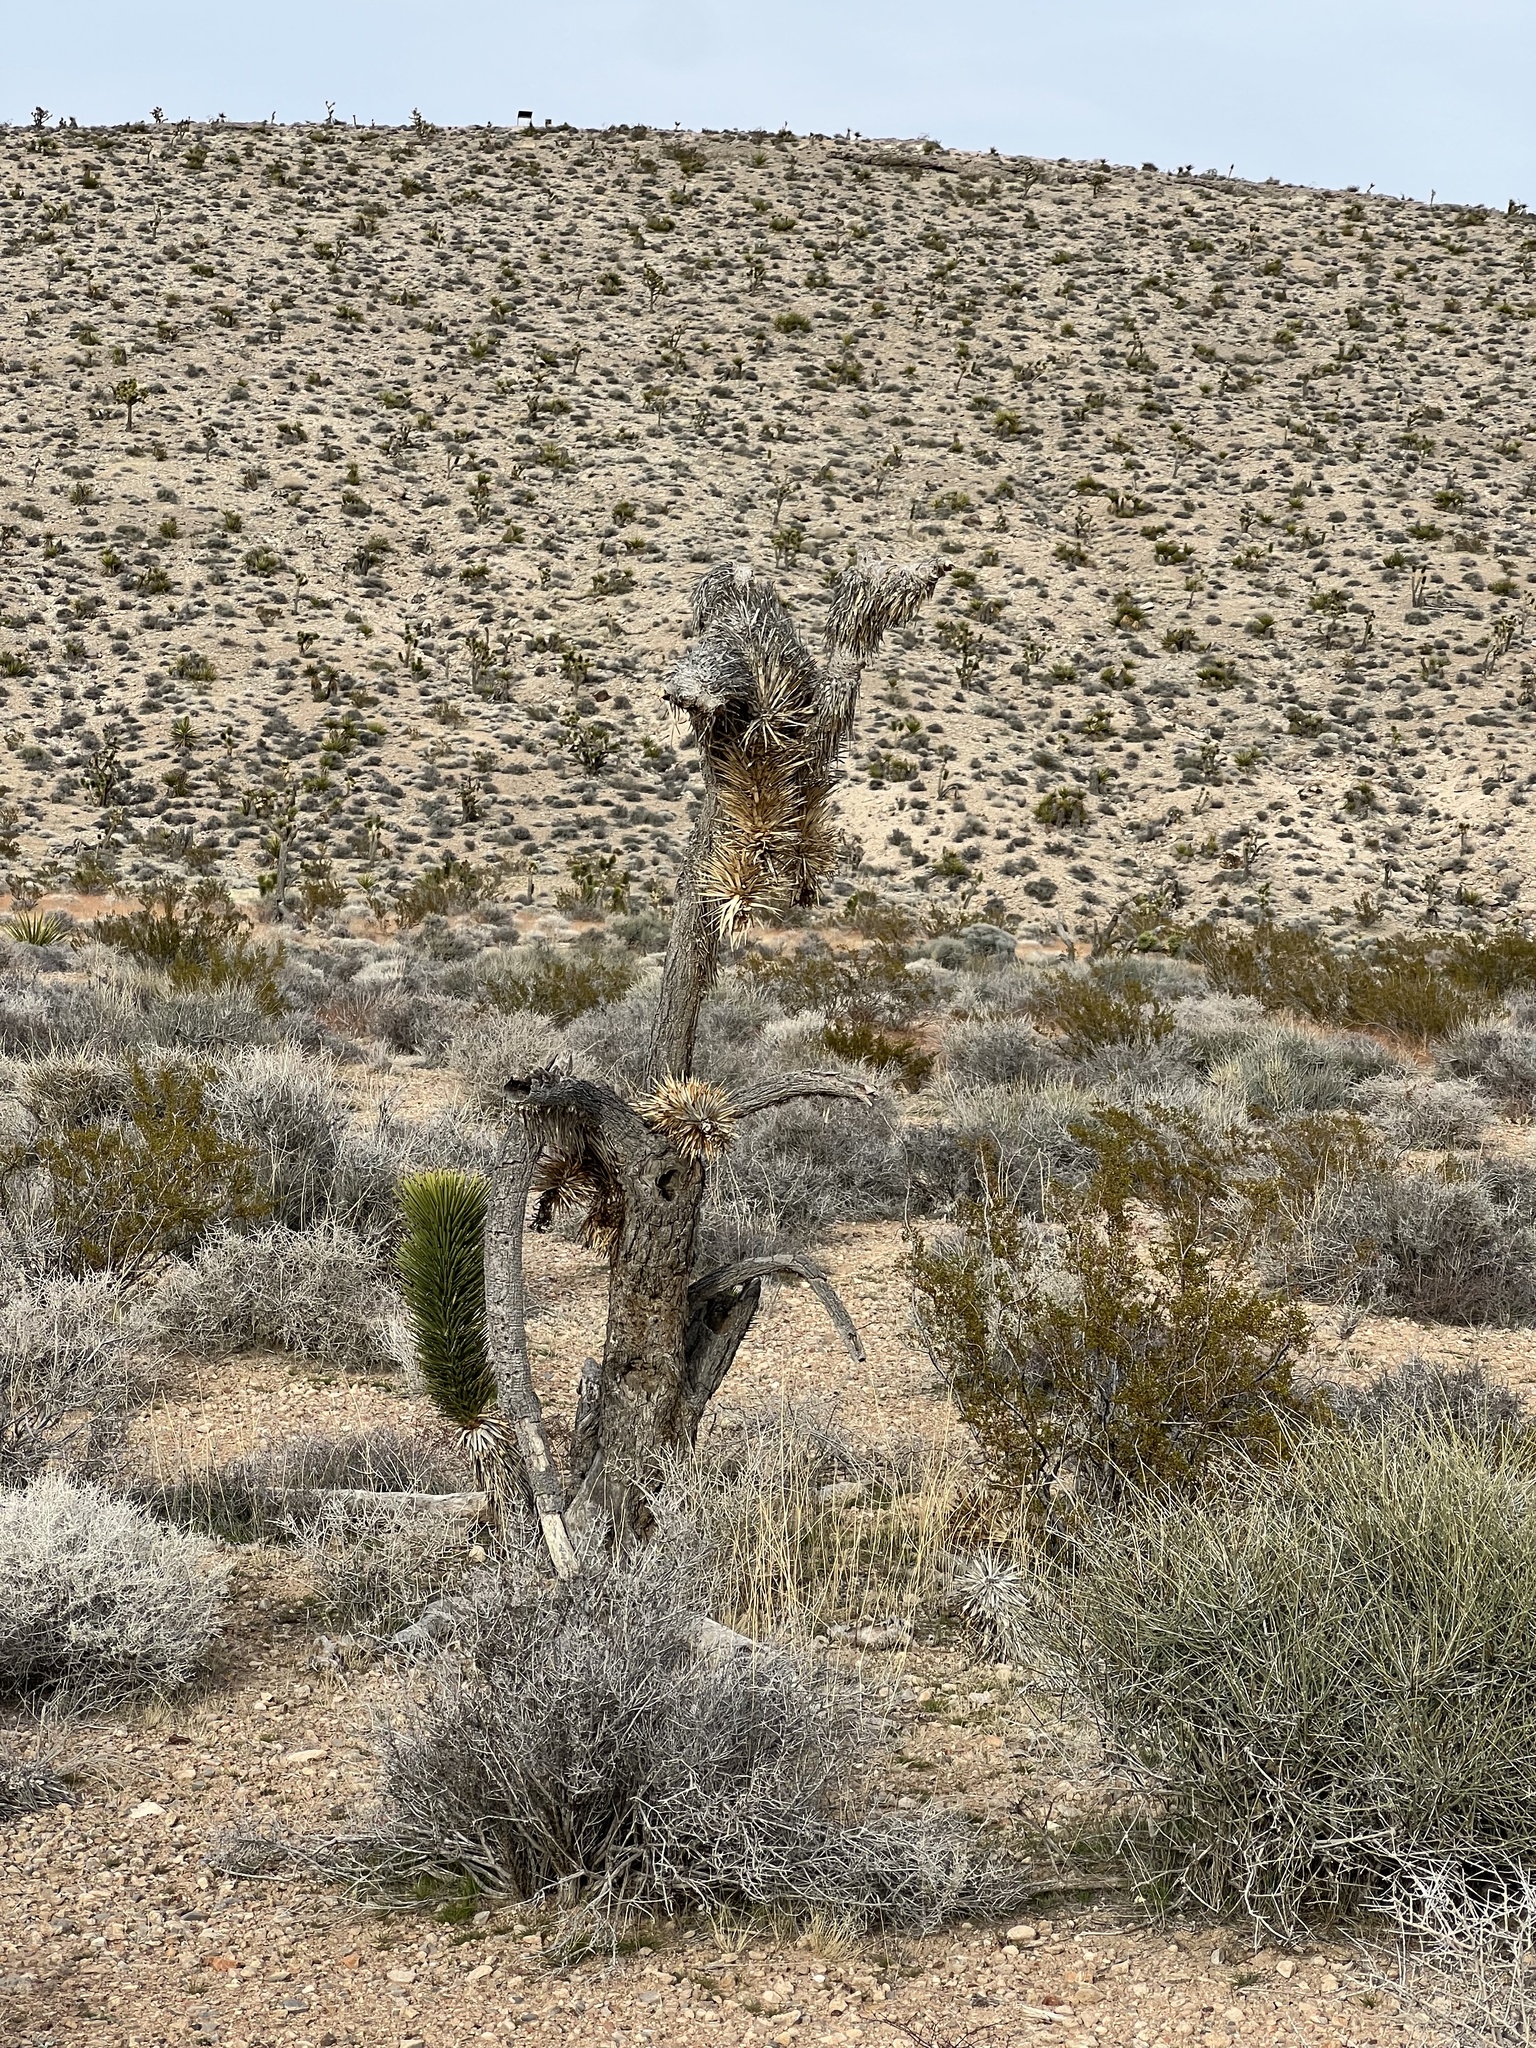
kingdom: Plantae
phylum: Tracheophyta
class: Liliopsida
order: Asparagales
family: Asparagaceae
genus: Yucca
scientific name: Yucca brevifolia
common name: Joshua tree
